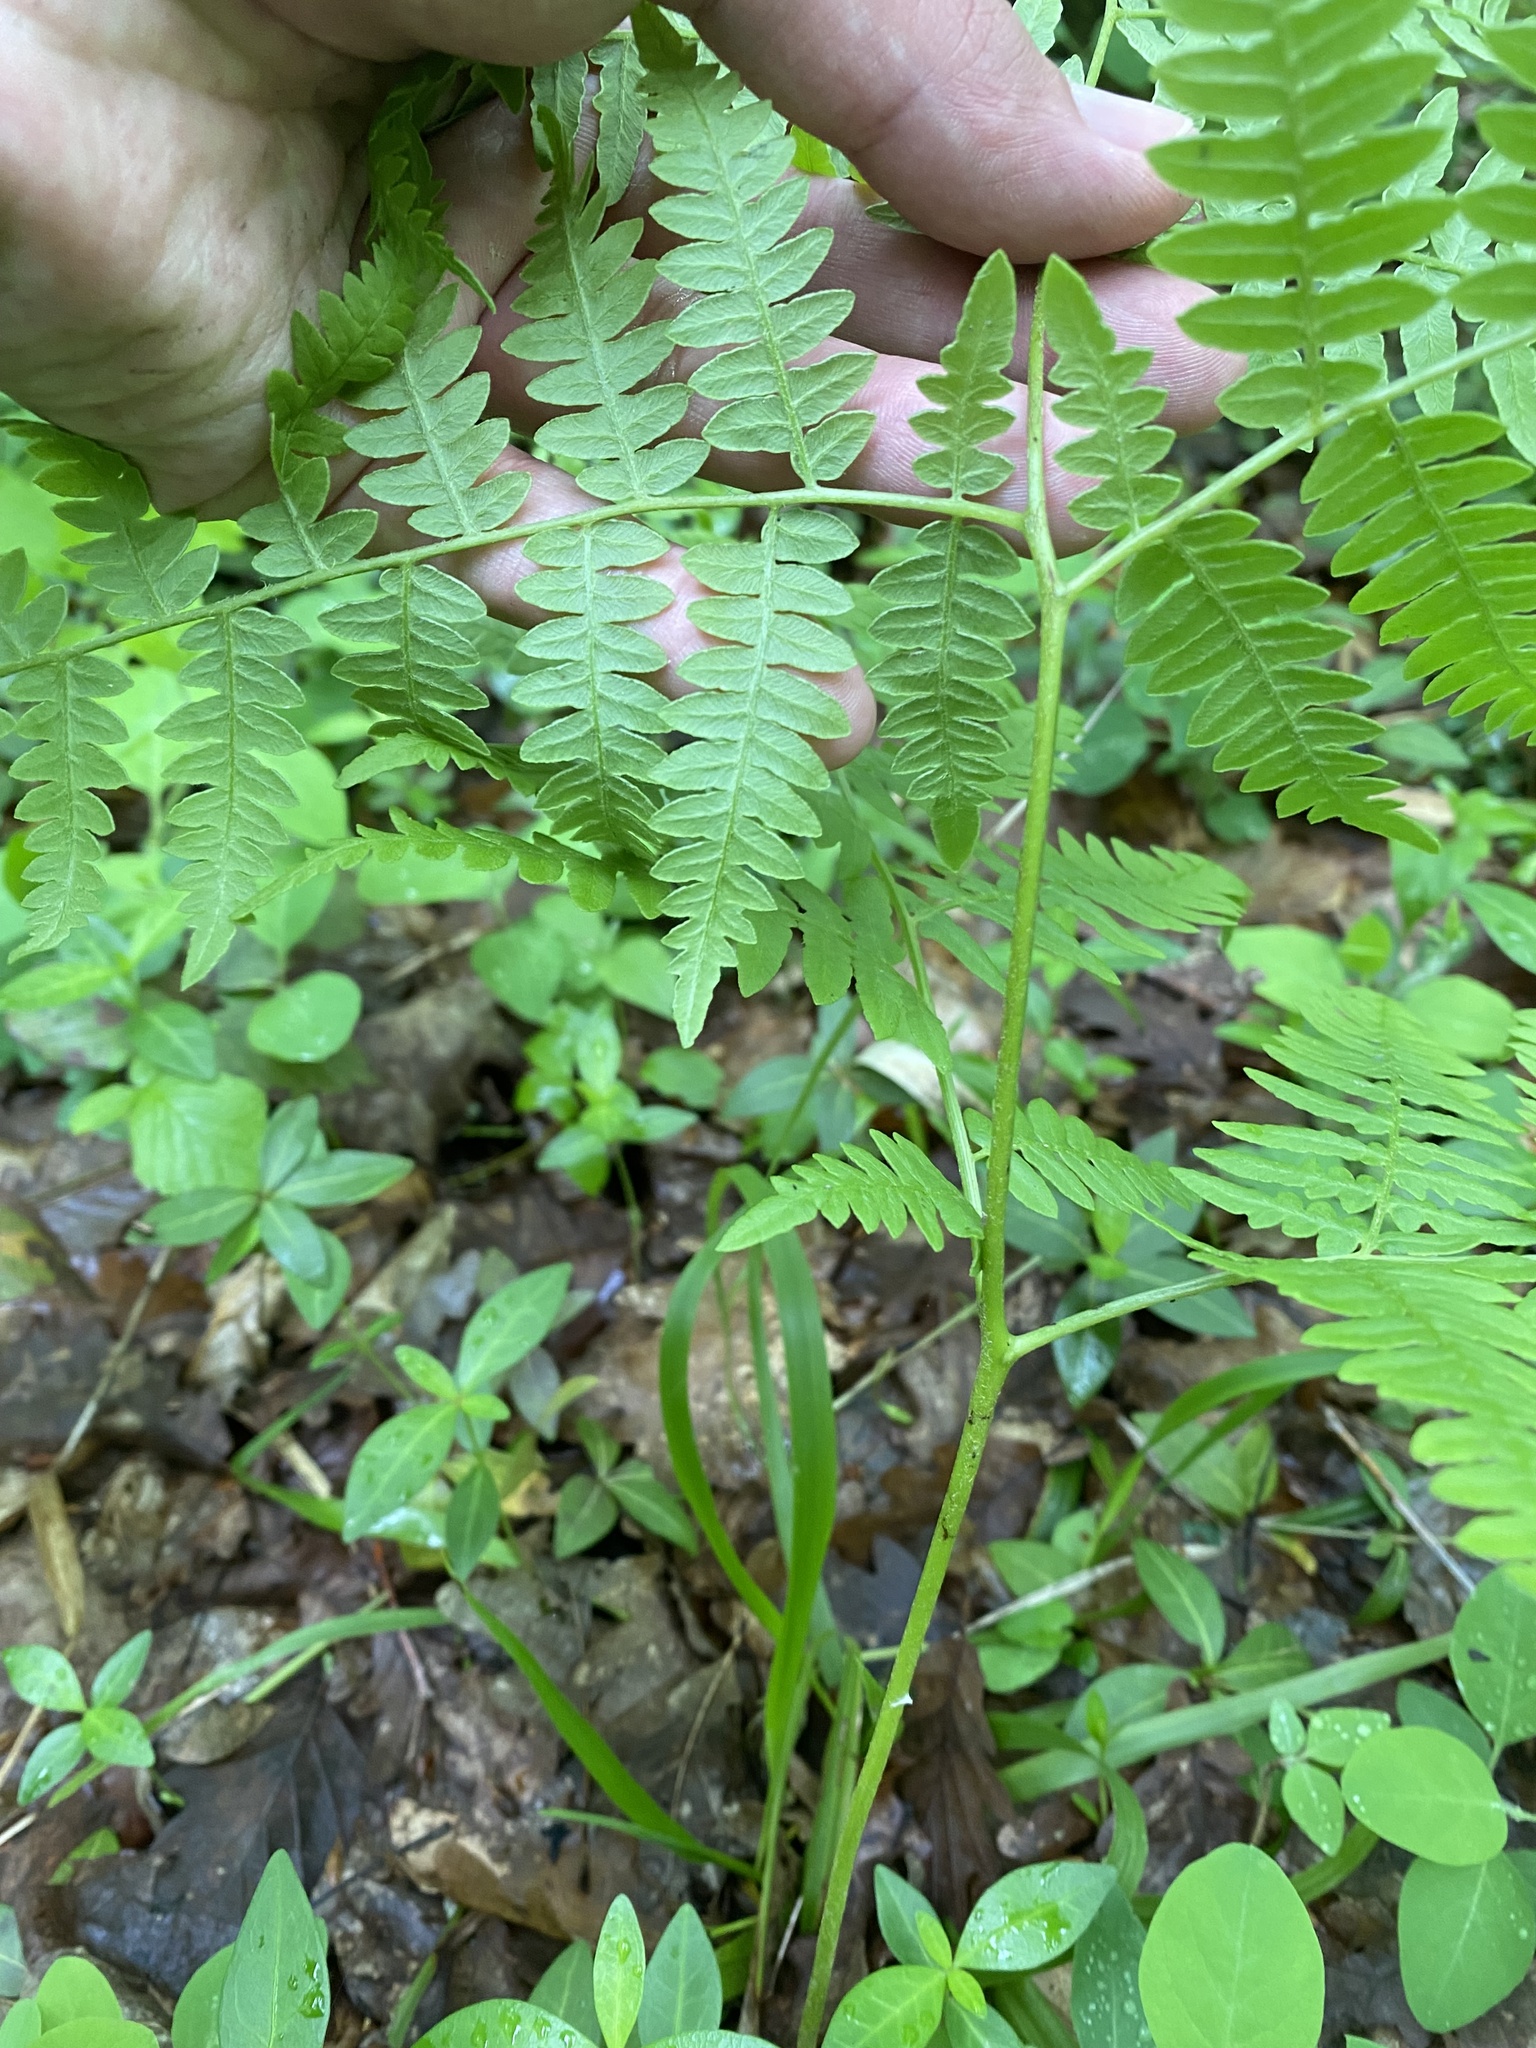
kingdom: Plantae
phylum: Tracheophyta
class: Polypodiopsida
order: Polypodiales
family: Dennstaedtiaceae
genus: Pteridium
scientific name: Pteridium tauricum
